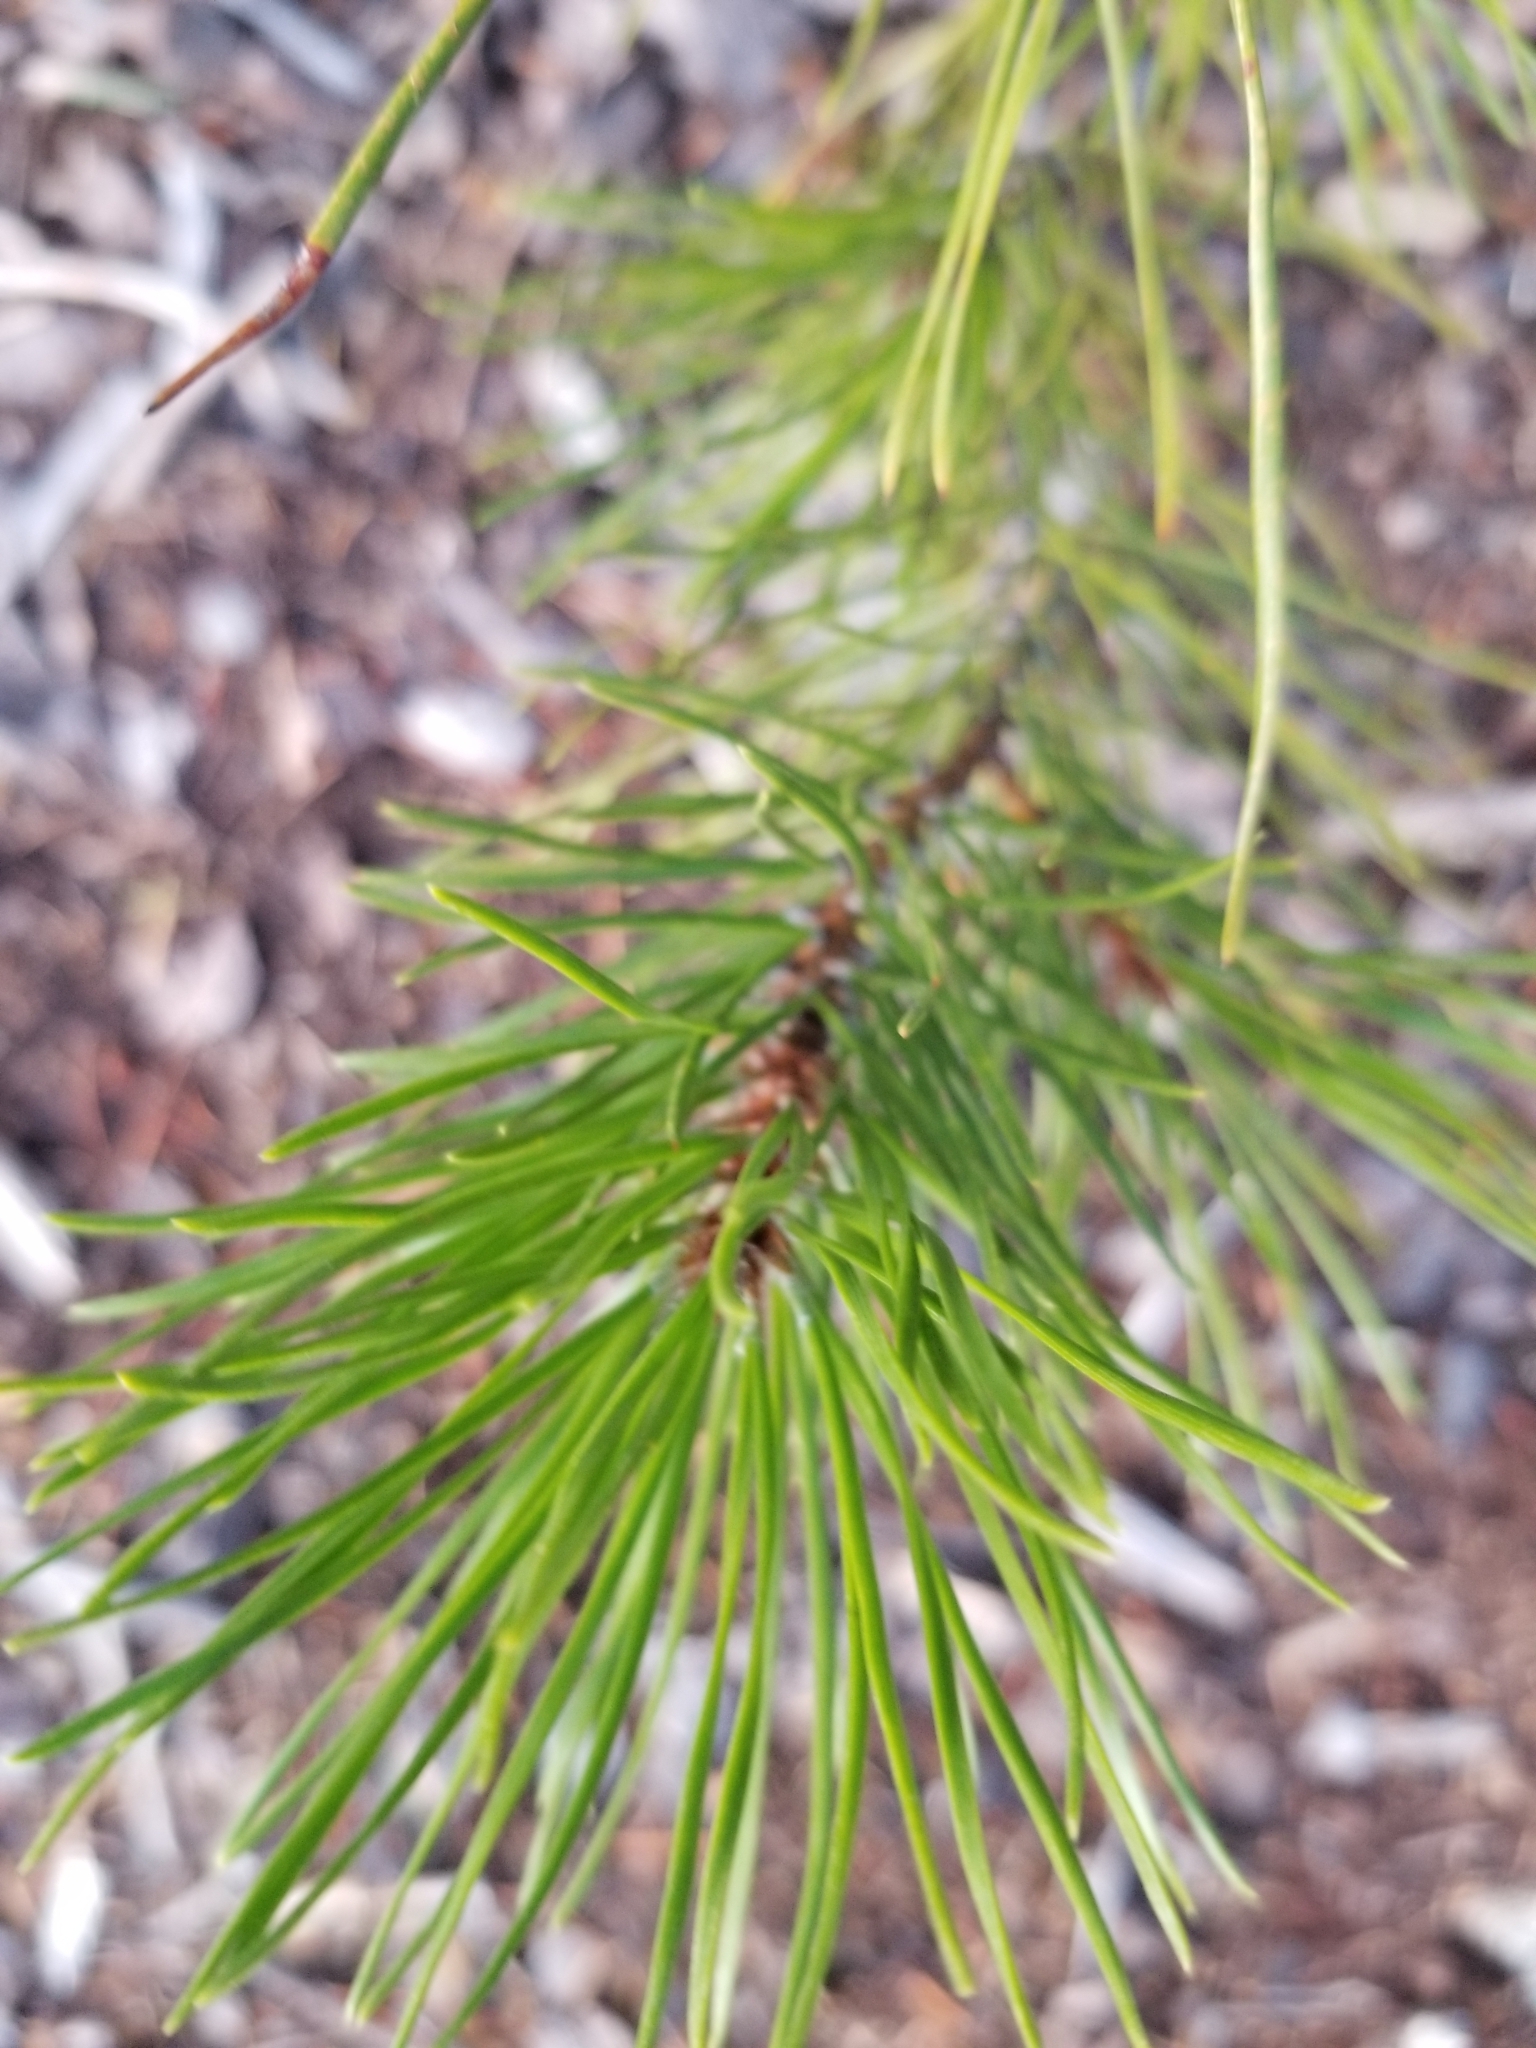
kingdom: Plantae
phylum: Tracheophyta
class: Pinopsida
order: Pinales
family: Pinaceae
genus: Pinus
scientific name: Pinus contorta
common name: Lodgepole pine
